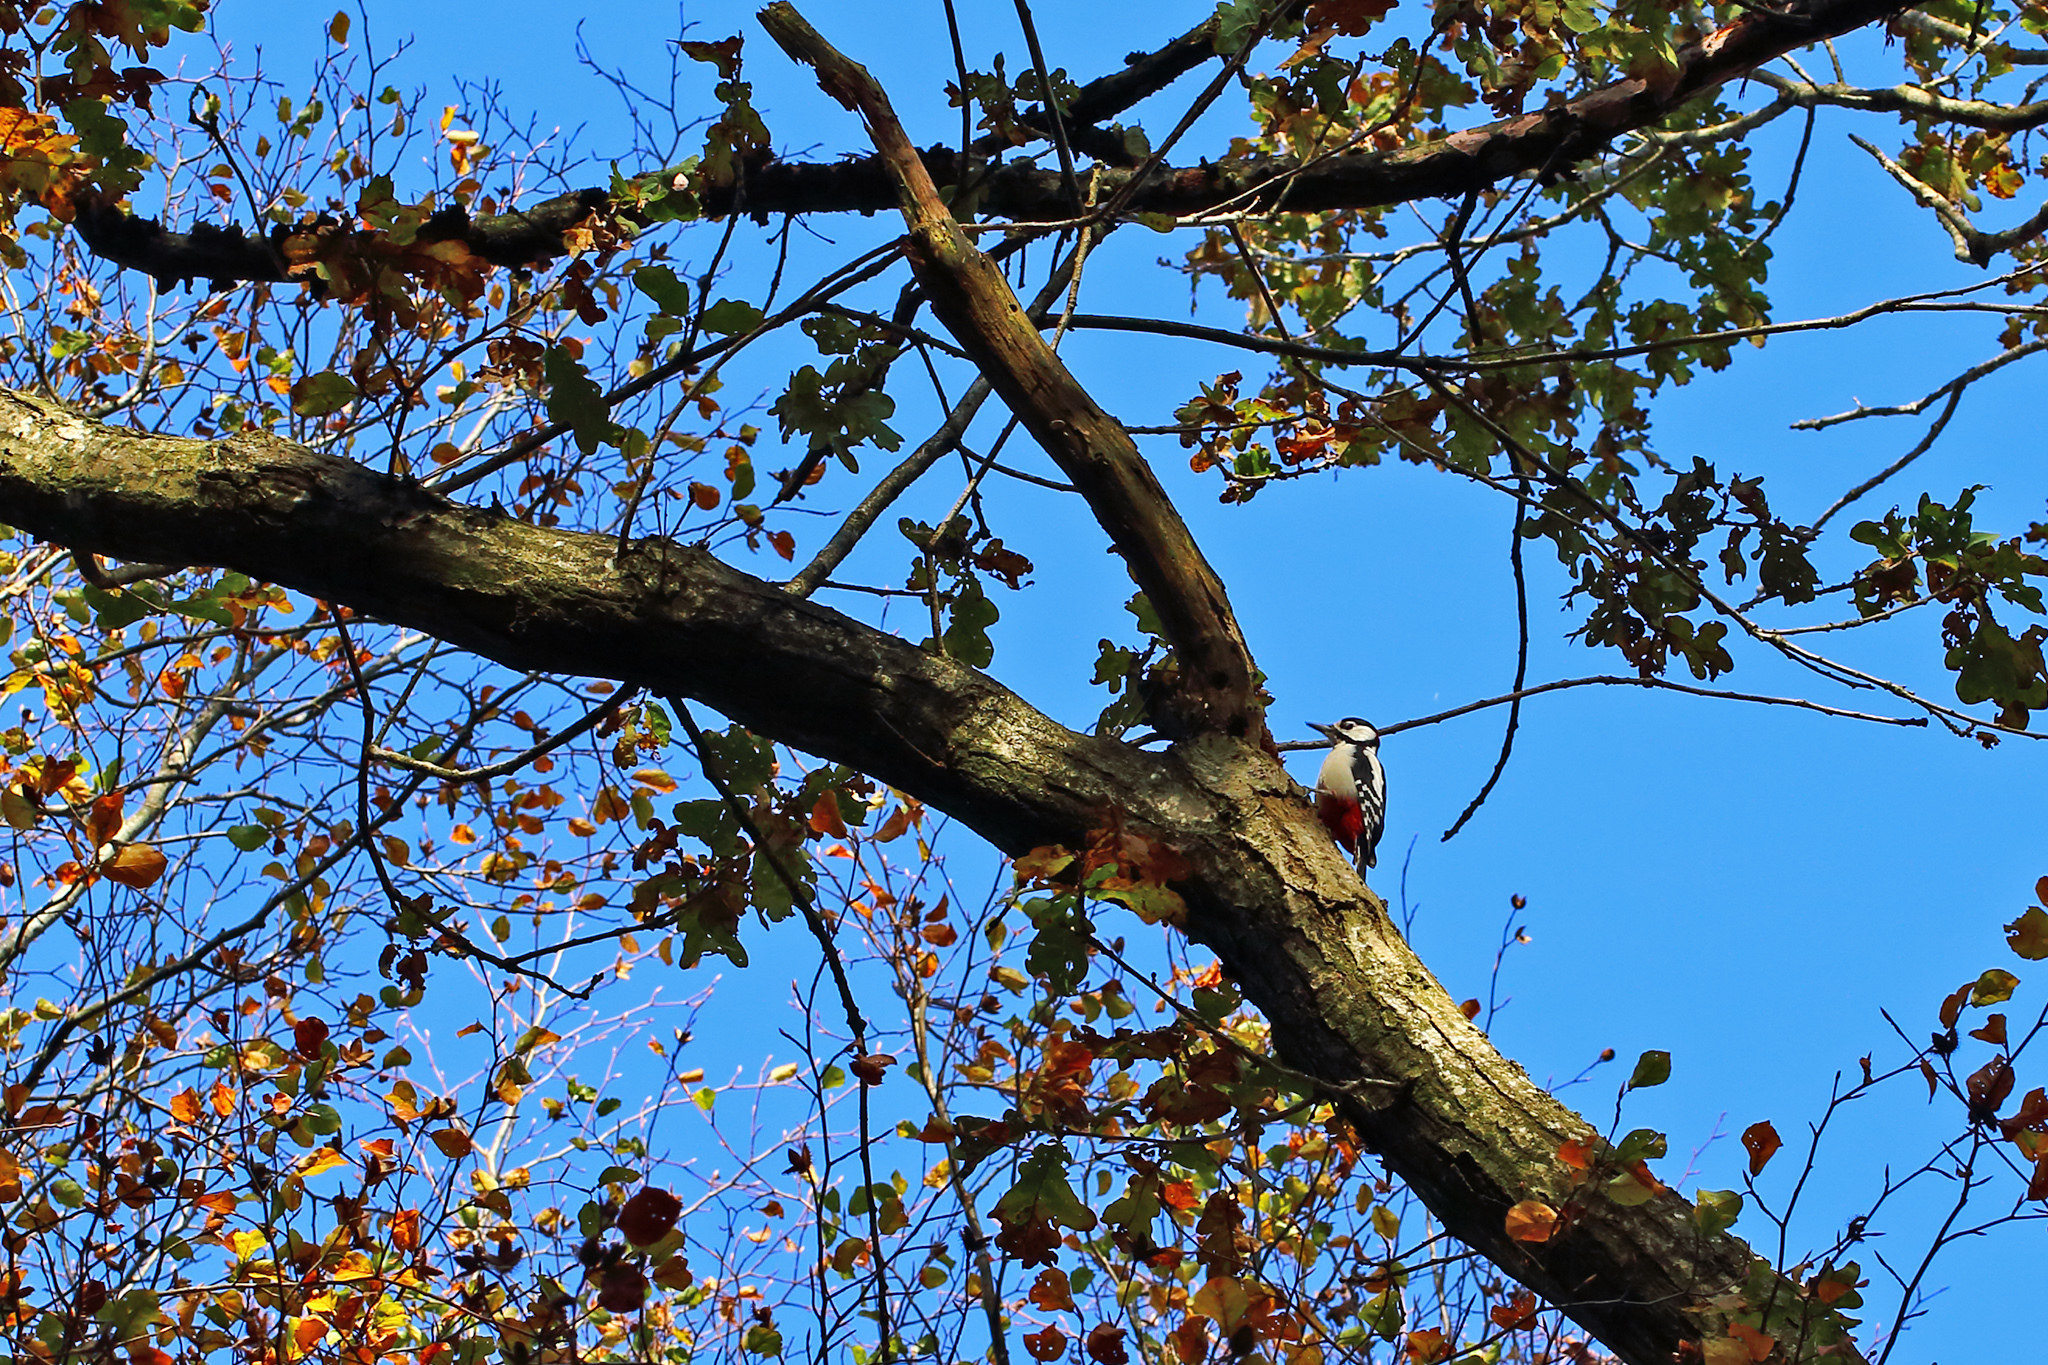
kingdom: Animalia
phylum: Chordata
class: Aves
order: Piciformes
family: Picidae
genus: Dendrocopos
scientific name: Dendrocopos major
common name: Great spotted woodpecker
